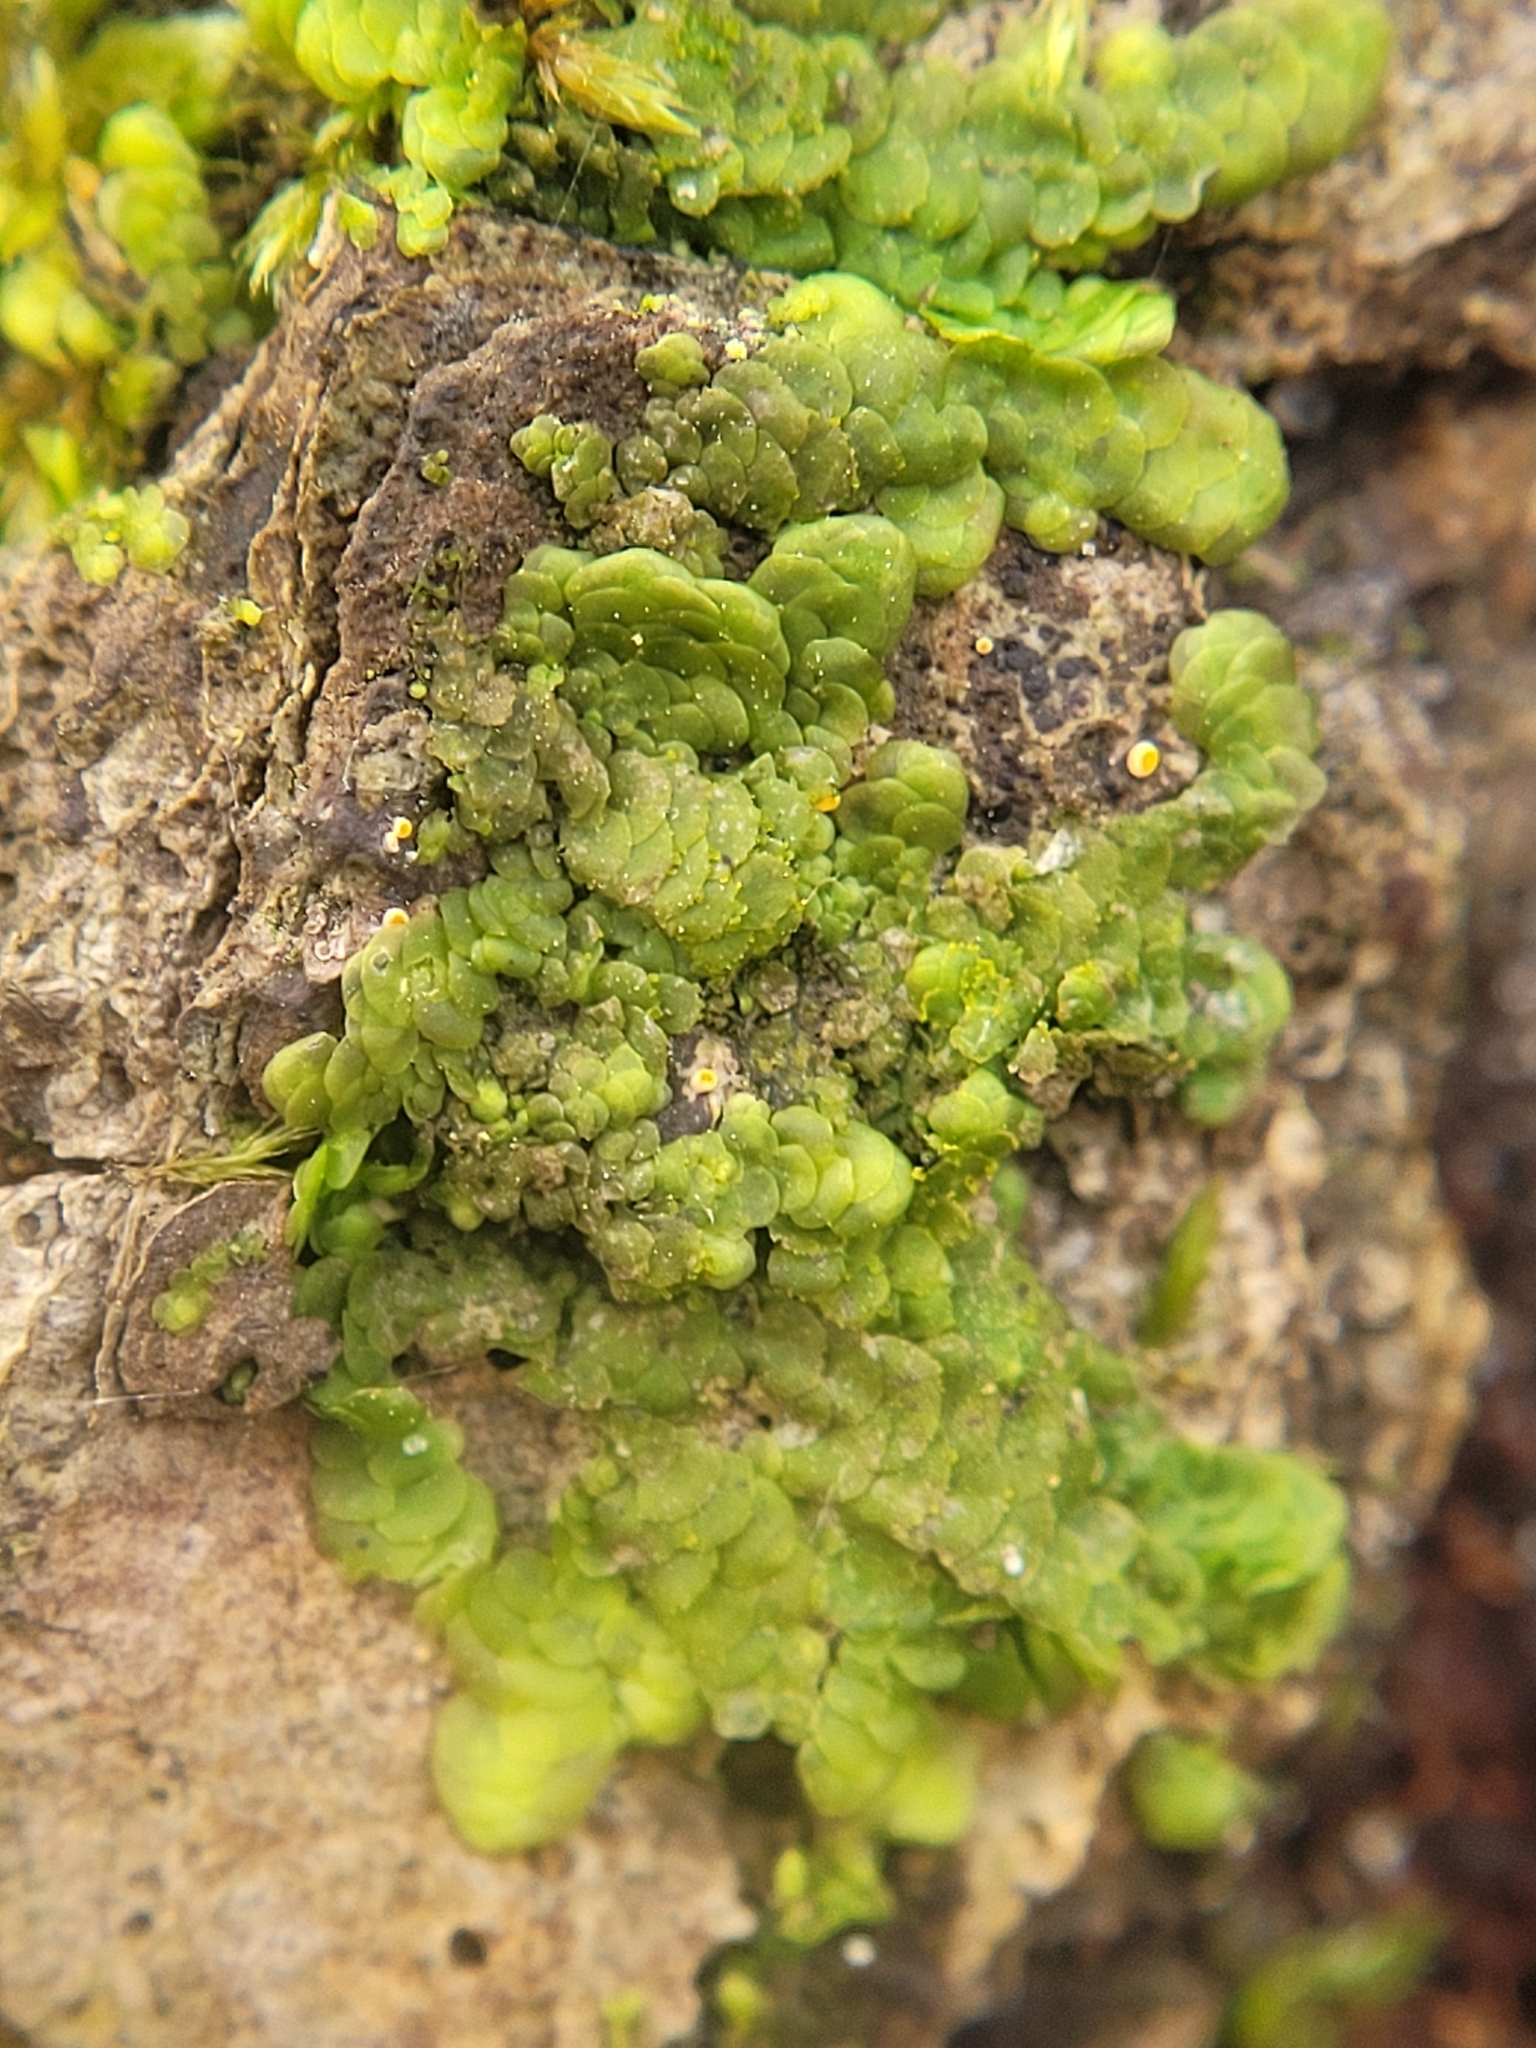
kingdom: Plantae
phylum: Marchantiophyta
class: Jungermanniopsida
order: Porellales
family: Radulaceae
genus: Radula
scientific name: Radula complanata
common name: Flat-leaved scalewort
